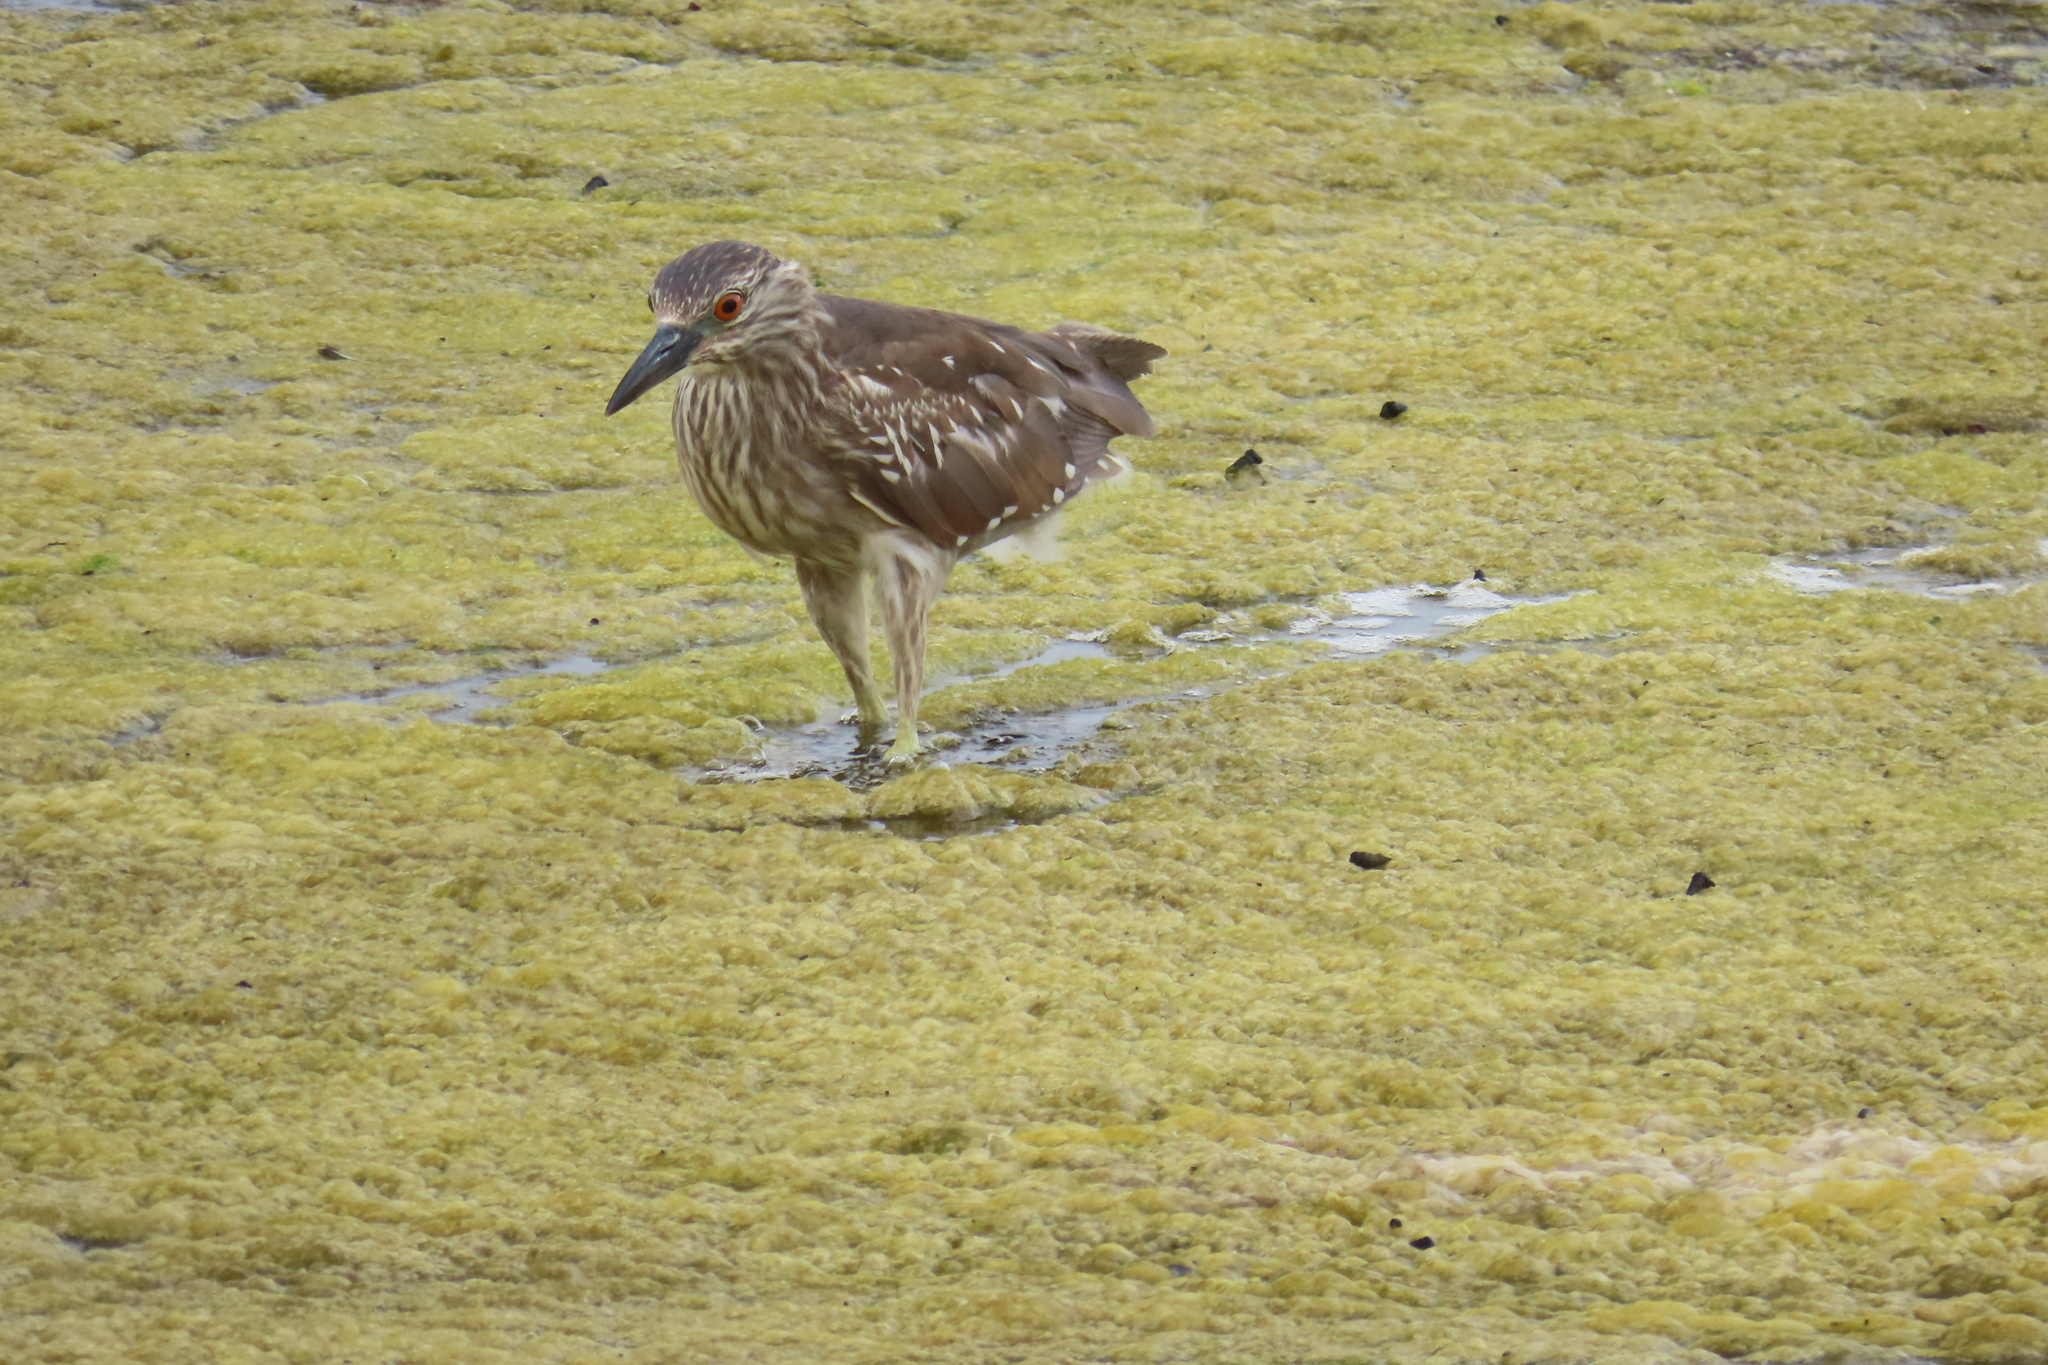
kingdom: Animalia
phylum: Chordata
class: Aves
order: Pelecaniformes
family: Ardeidae
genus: Nycticorax
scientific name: Nycticorax nycticorax
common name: Black-crowned night heron
